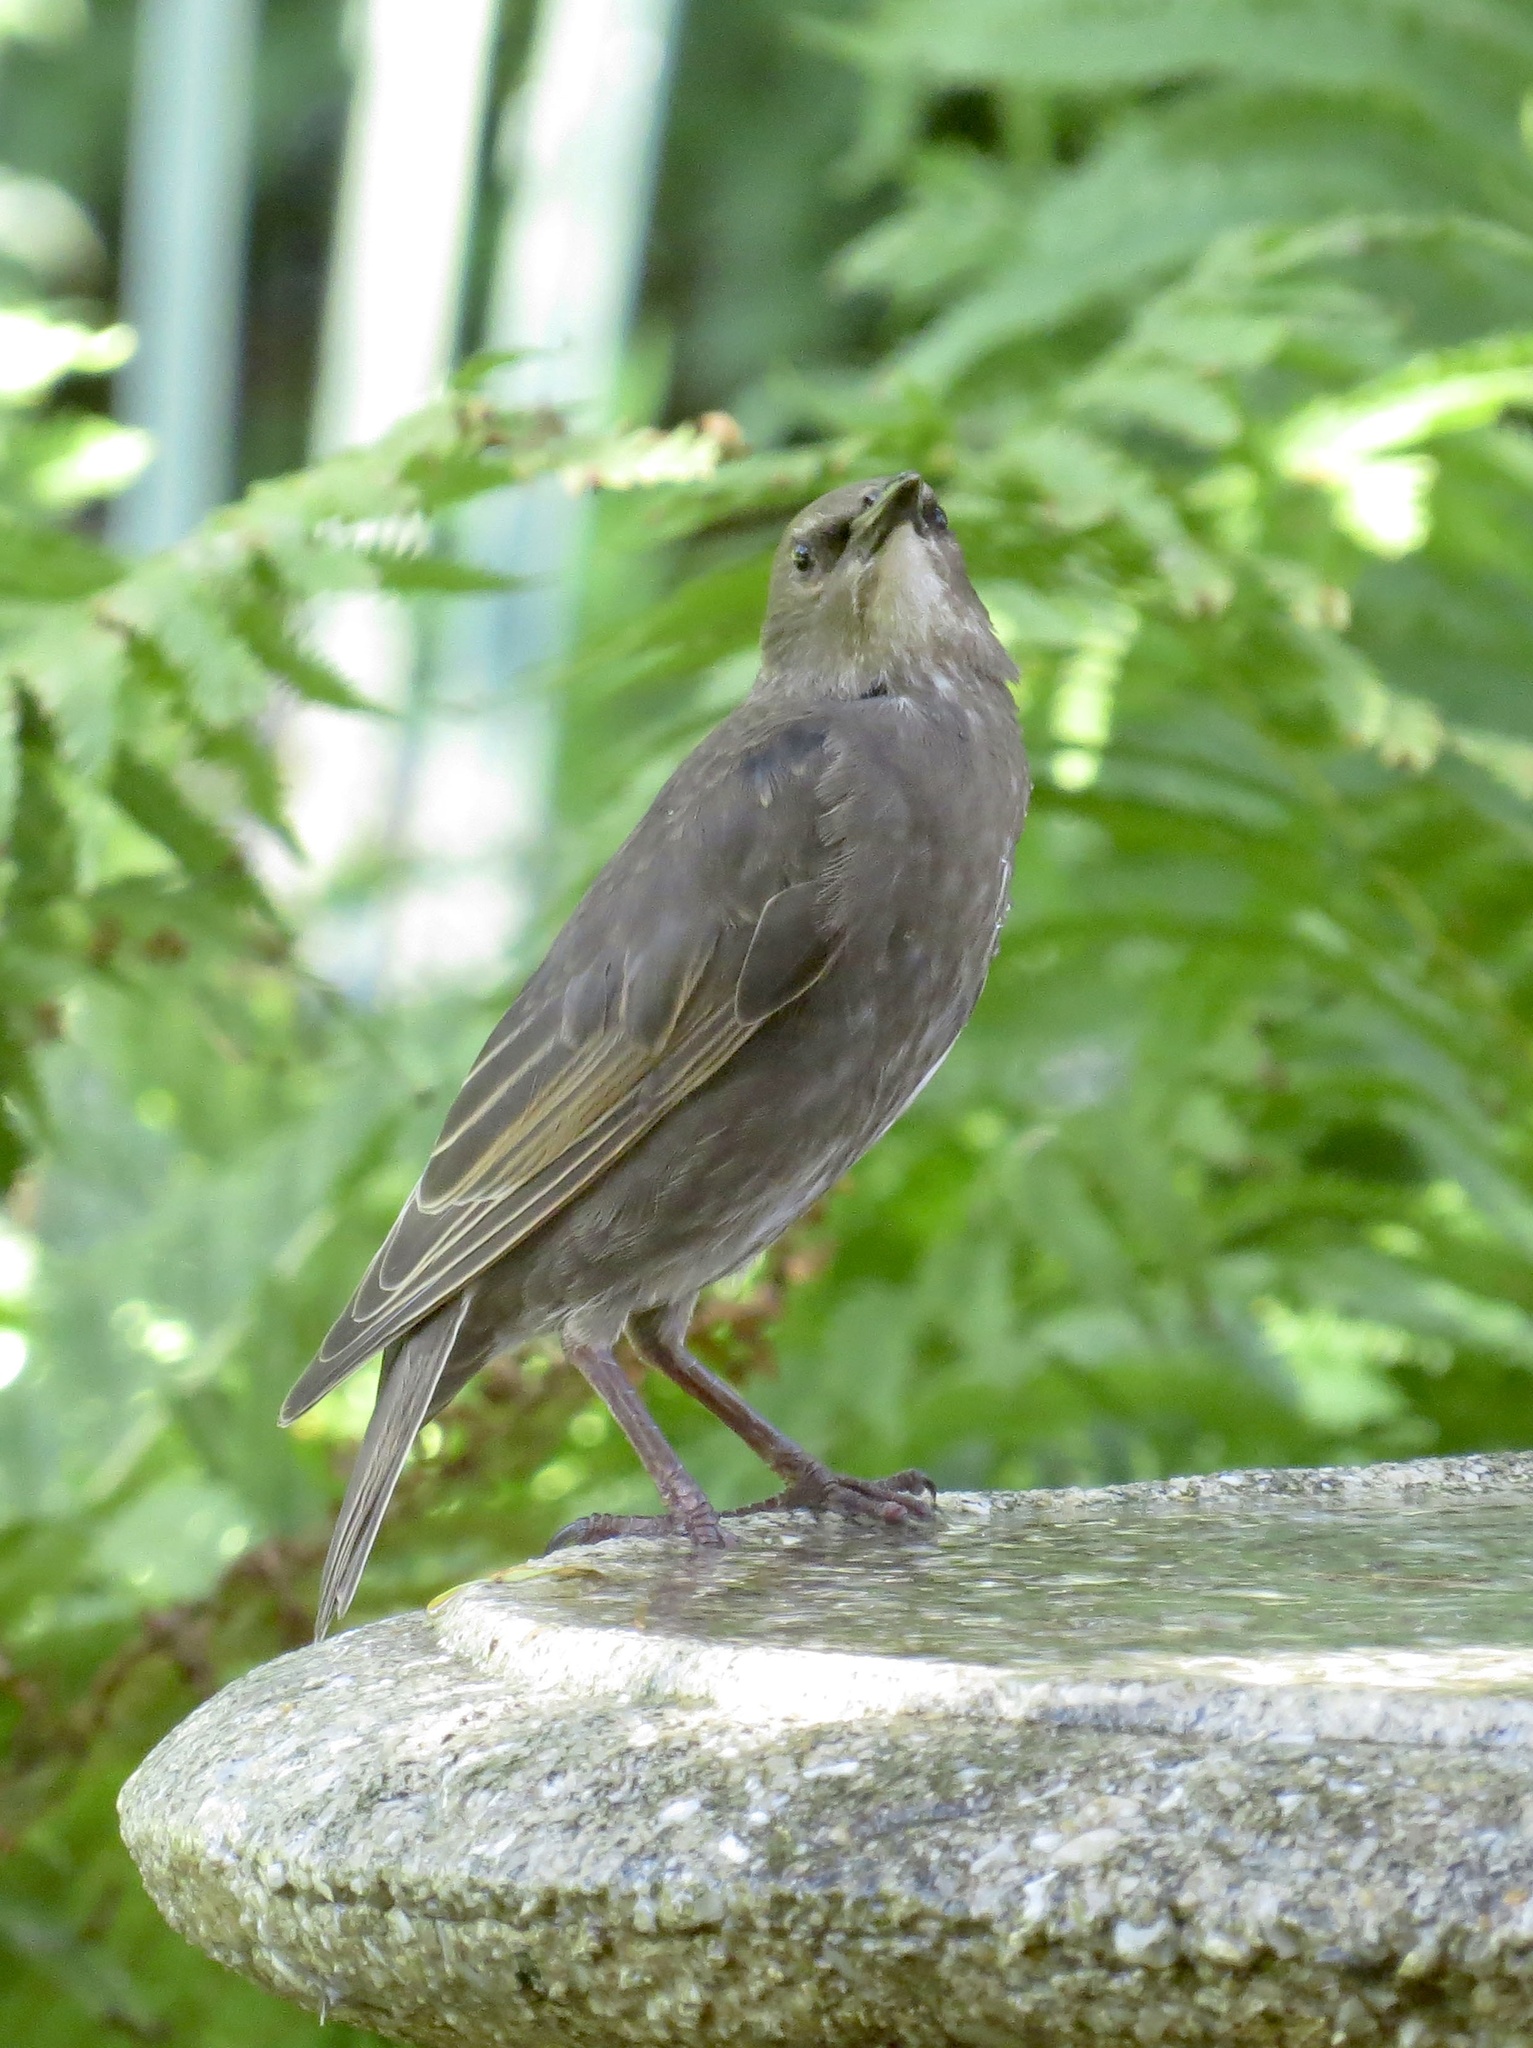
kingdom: Animalia
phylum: Chordata
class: Aves
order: Passeriformes
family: Sturnidae
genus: Sturnus
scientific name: Sturnus vulgaris
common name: Common starling
